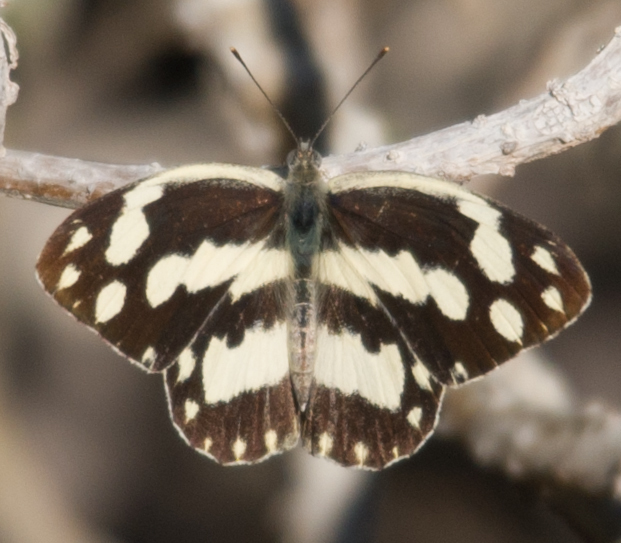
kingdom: Animalia
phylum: Arthropoda
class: Insecta
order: Lepidoptera
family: Pieridae
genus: Pinacopteryx
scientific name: Pinacopteryx eriphia
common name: Zebra white
